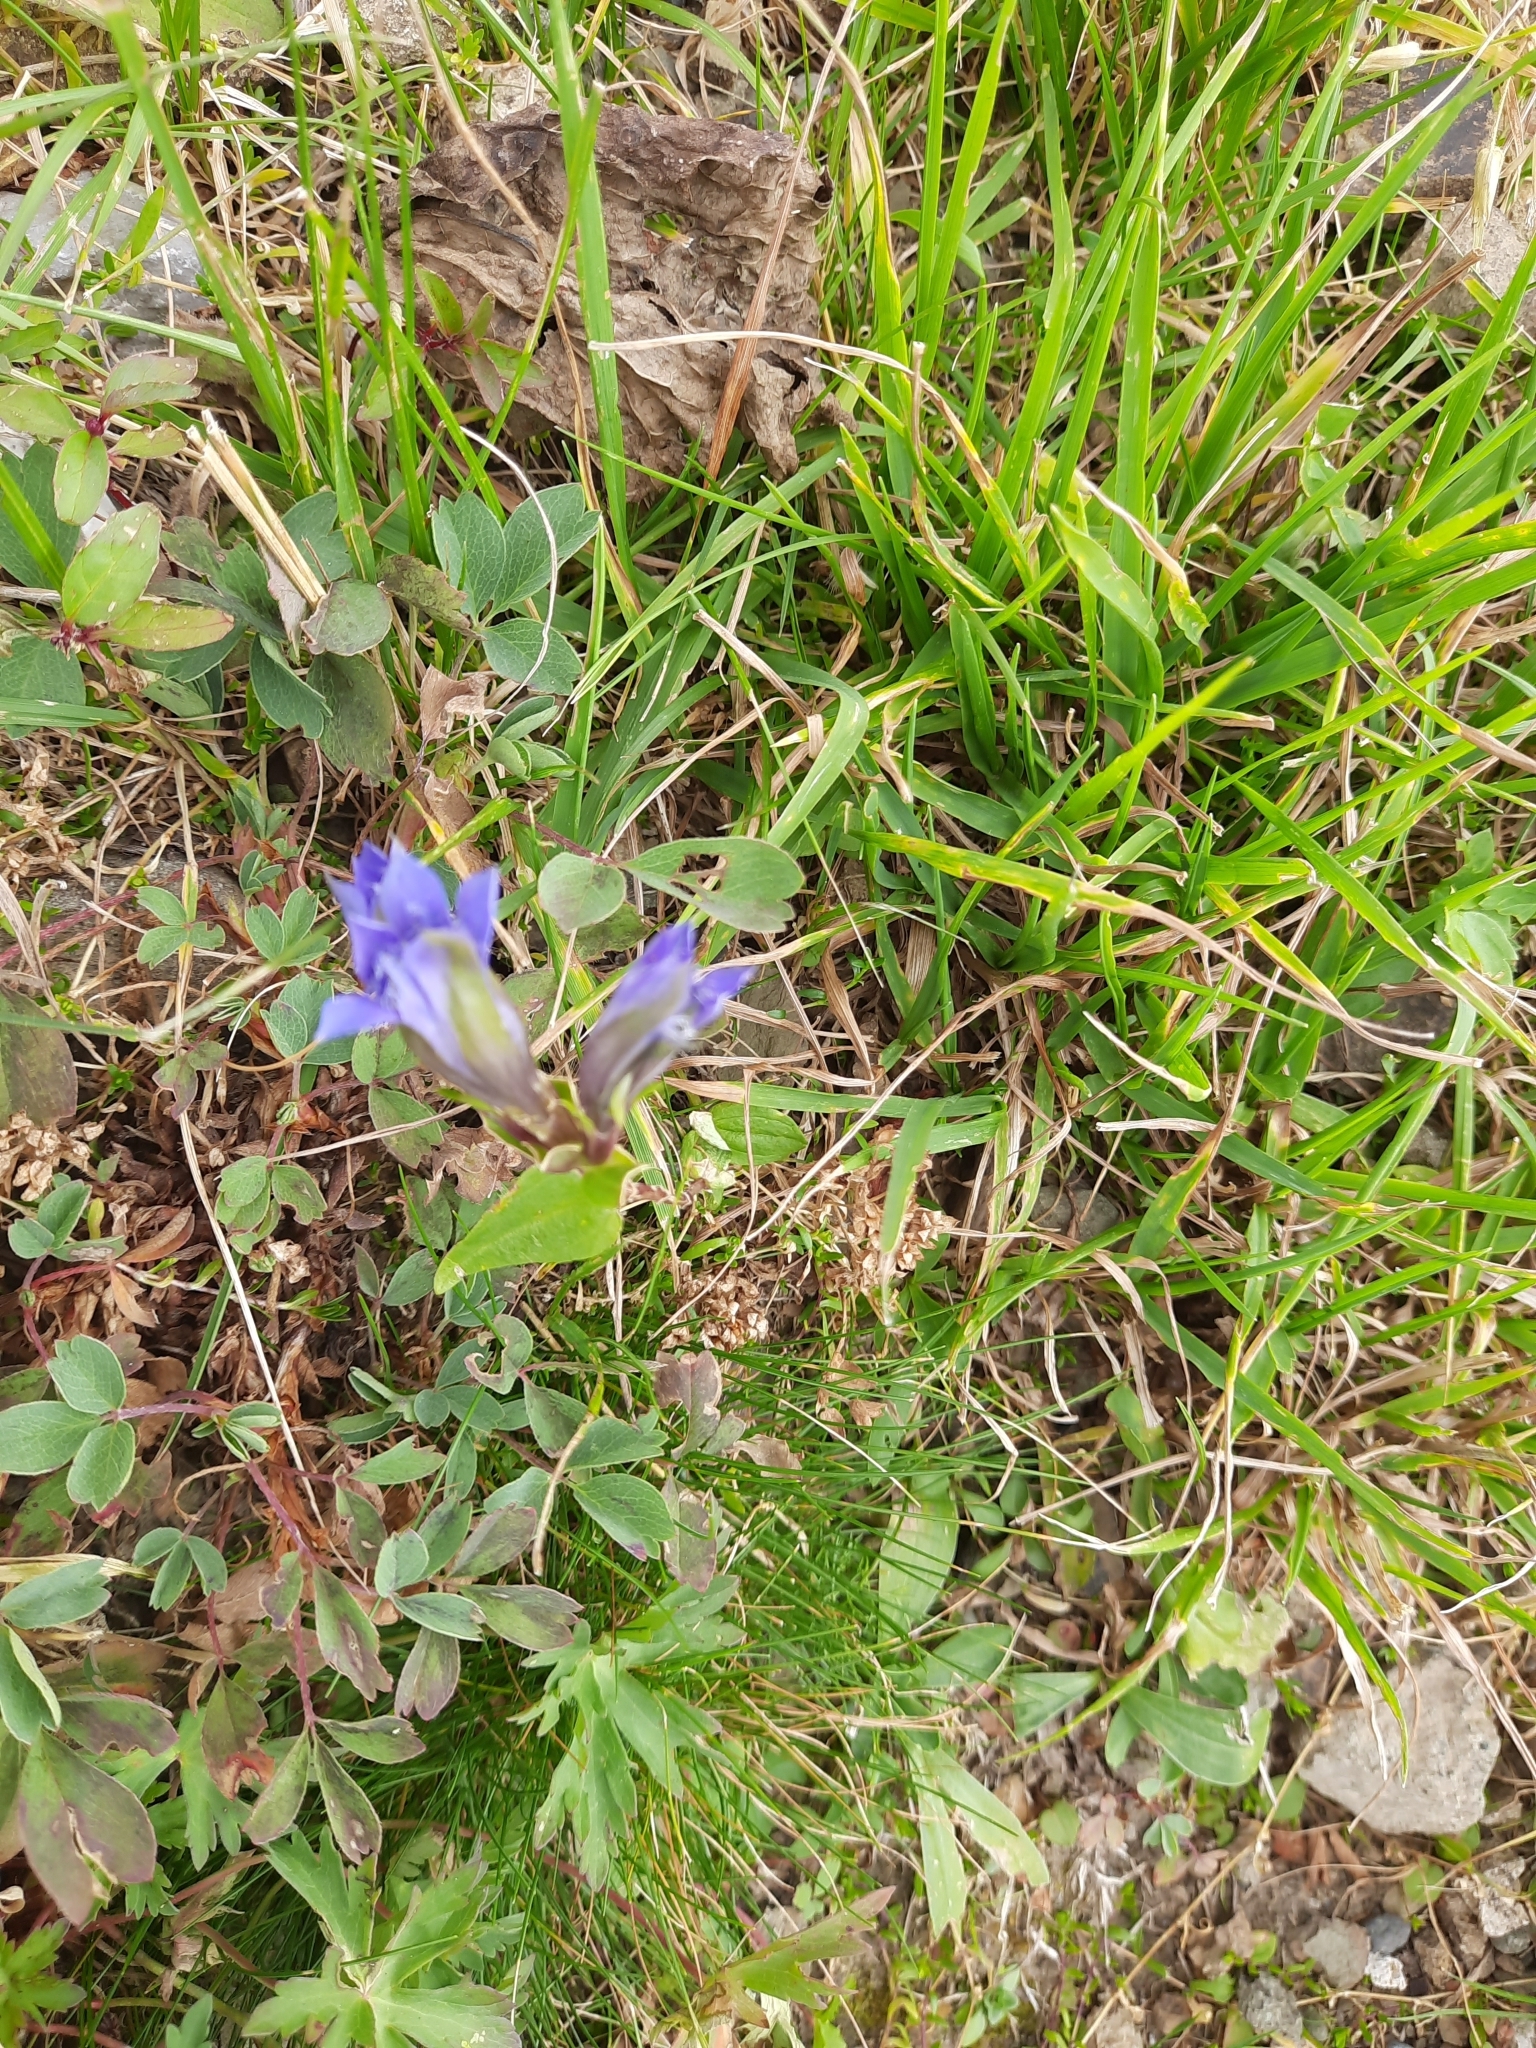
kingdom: Plantae
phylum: Tracheophyta
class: Magnoliopsida
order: Gentianales
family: Gentianaceae
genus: Gentiana
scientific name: Gentiana septemfida
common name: Crested gentian
